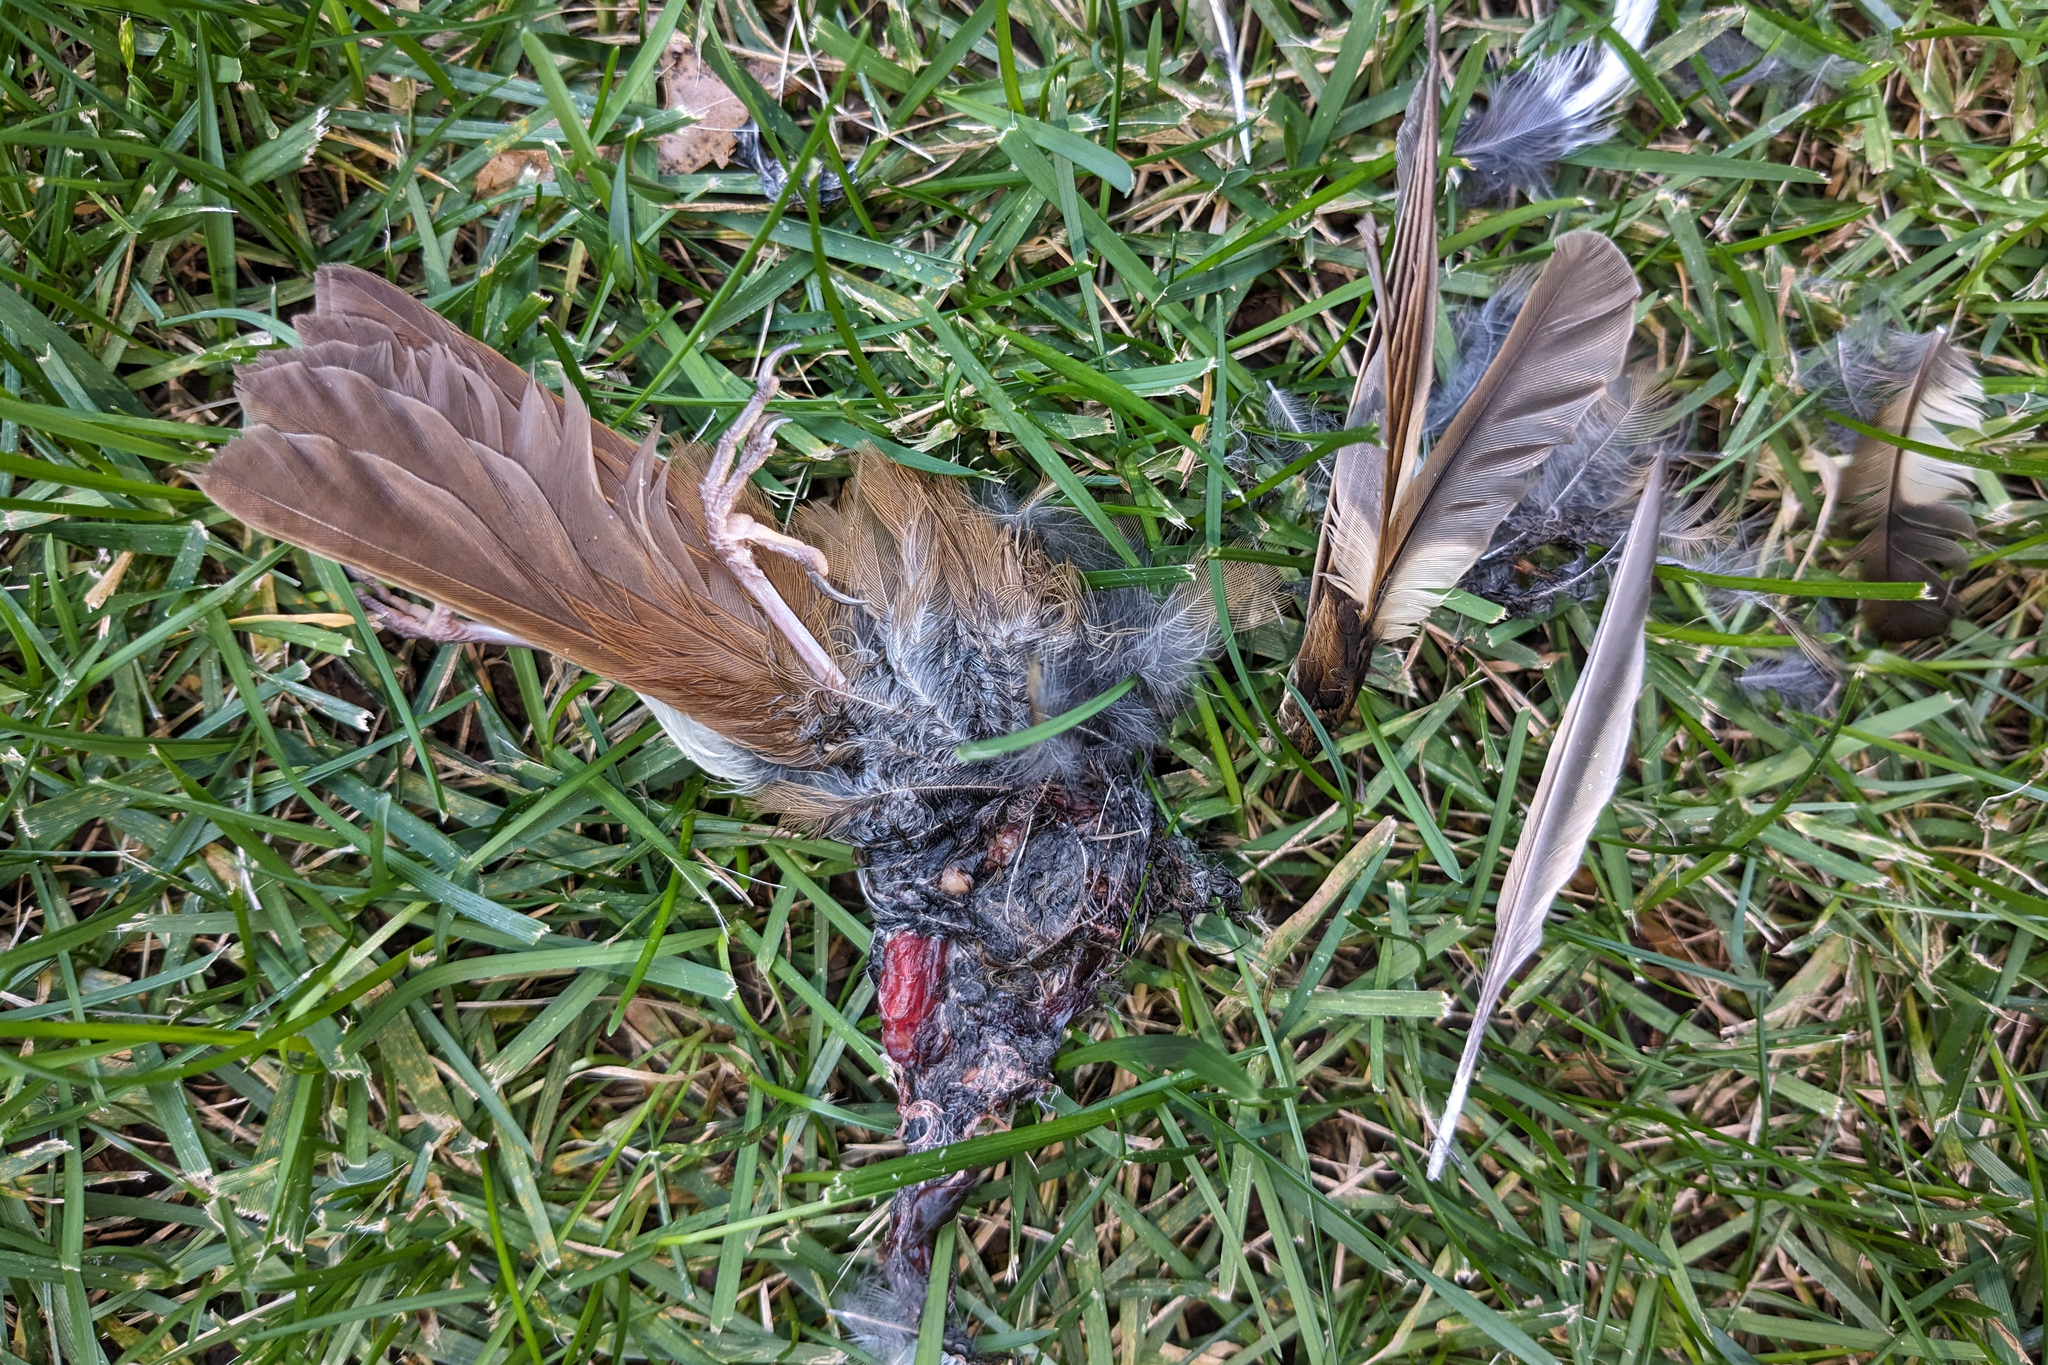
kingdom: Animalia
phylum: Chordata
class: Aves
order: Passeriformes
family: Turdidae
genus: Catharus
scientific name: Catharus guttatus
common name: Hermit thrush
